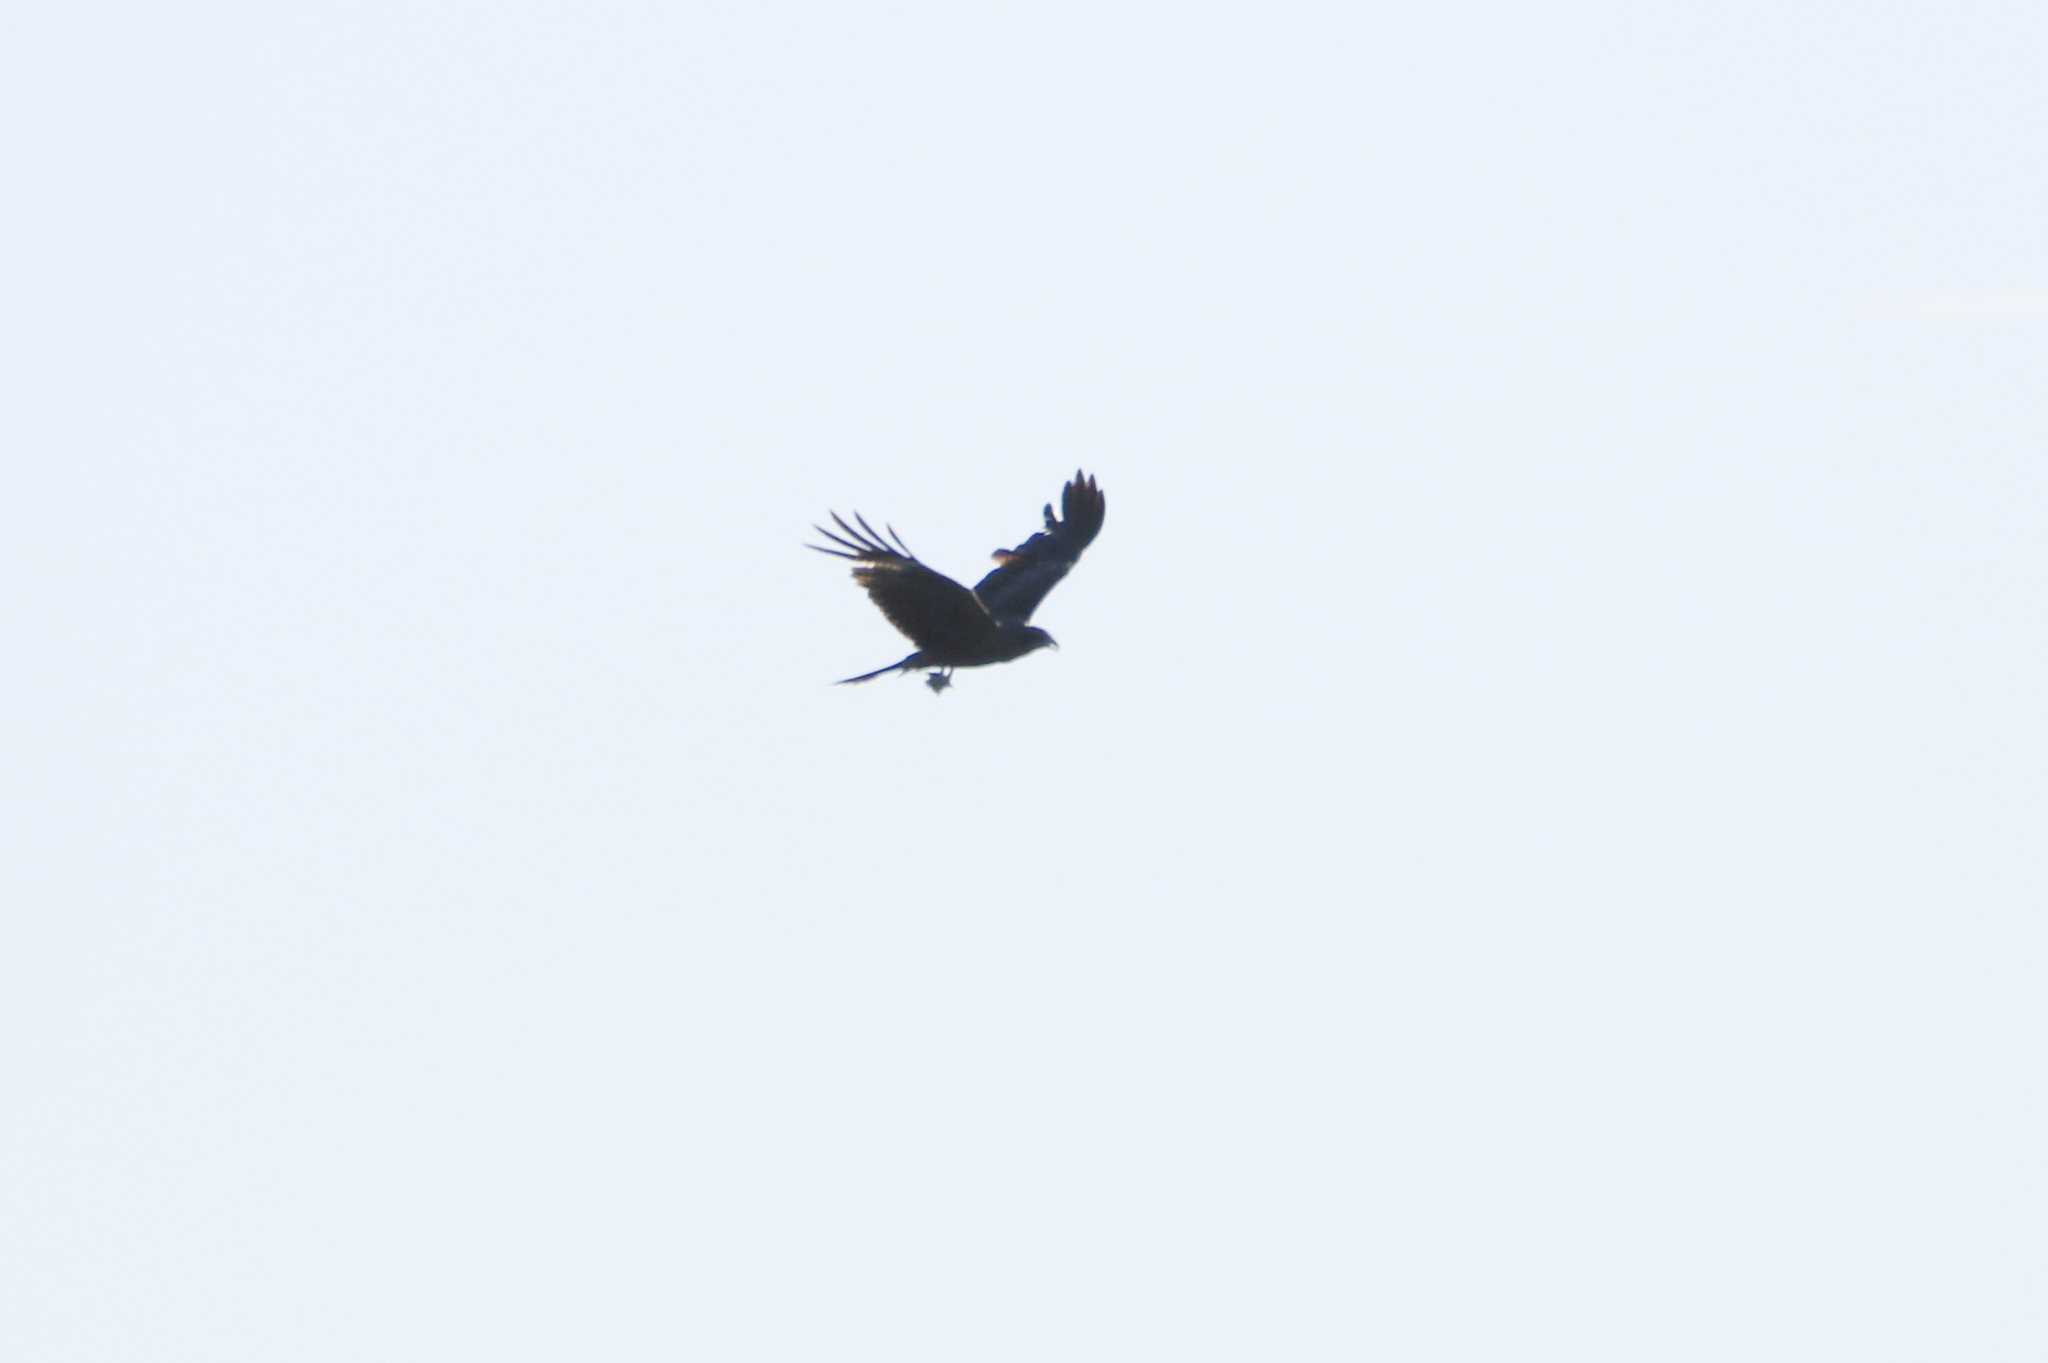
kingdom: Animalia
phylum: Chordata
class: Aves
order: Accipitriformes
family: Accipitridae
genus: Milvus
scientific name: Milvus migrans
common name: Black kite
